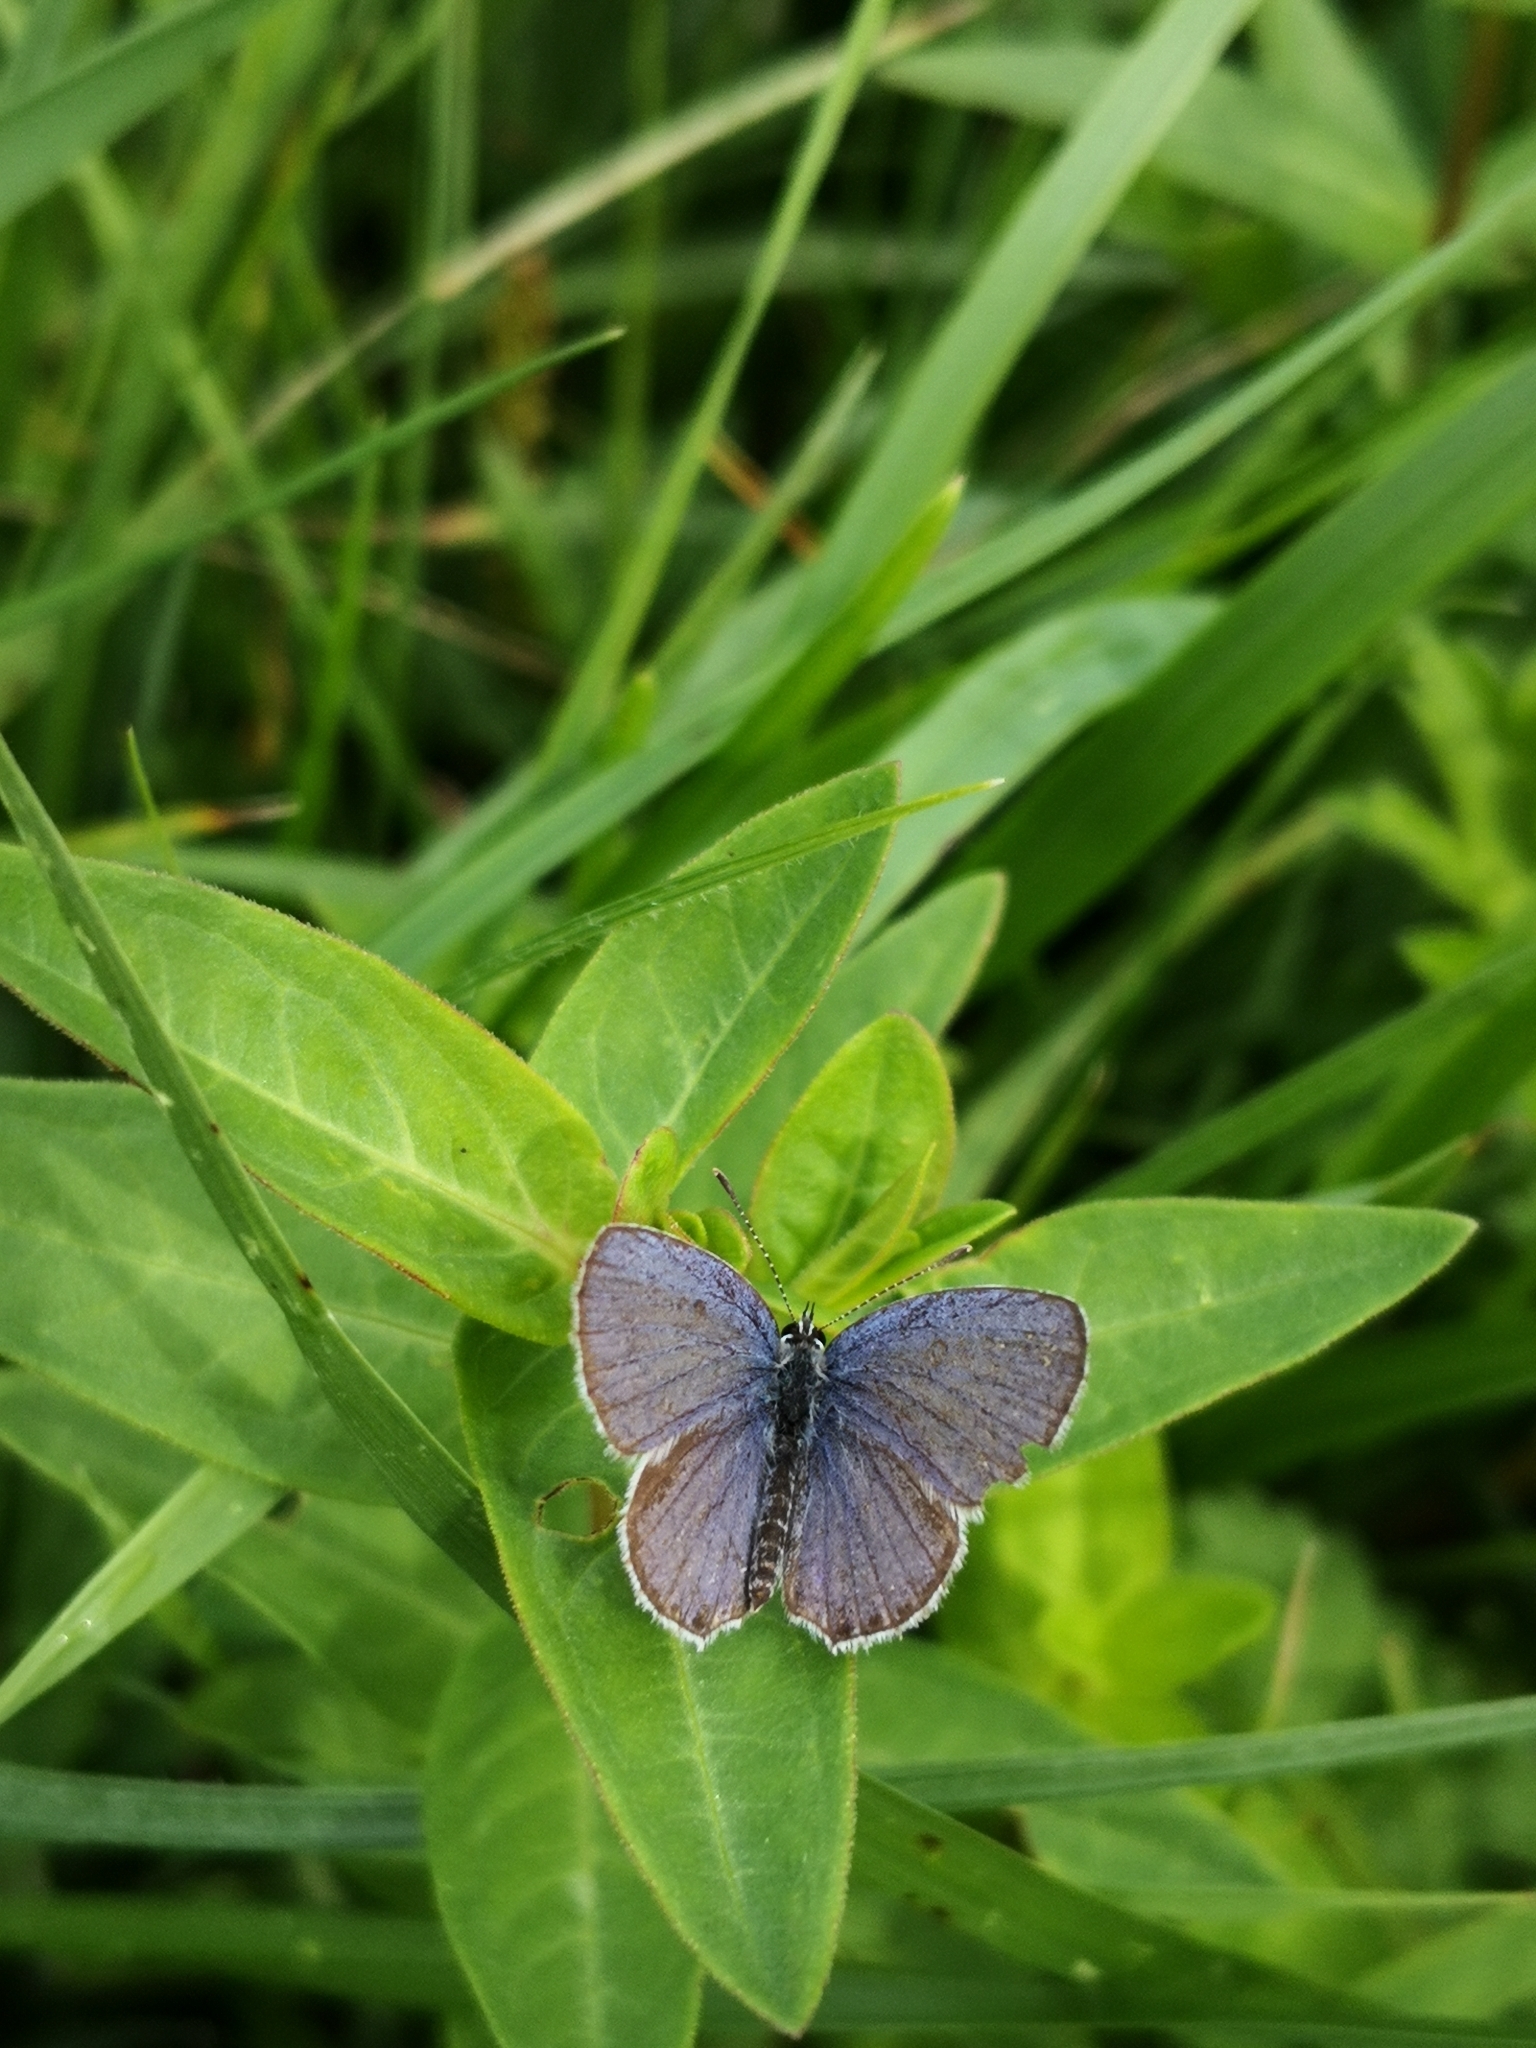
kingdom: Animalia
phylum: Arthropoda
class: Insecta
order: Lepidoptera
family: Lycaenidae
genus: Elkalyce
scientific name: Elkalyce argiades
